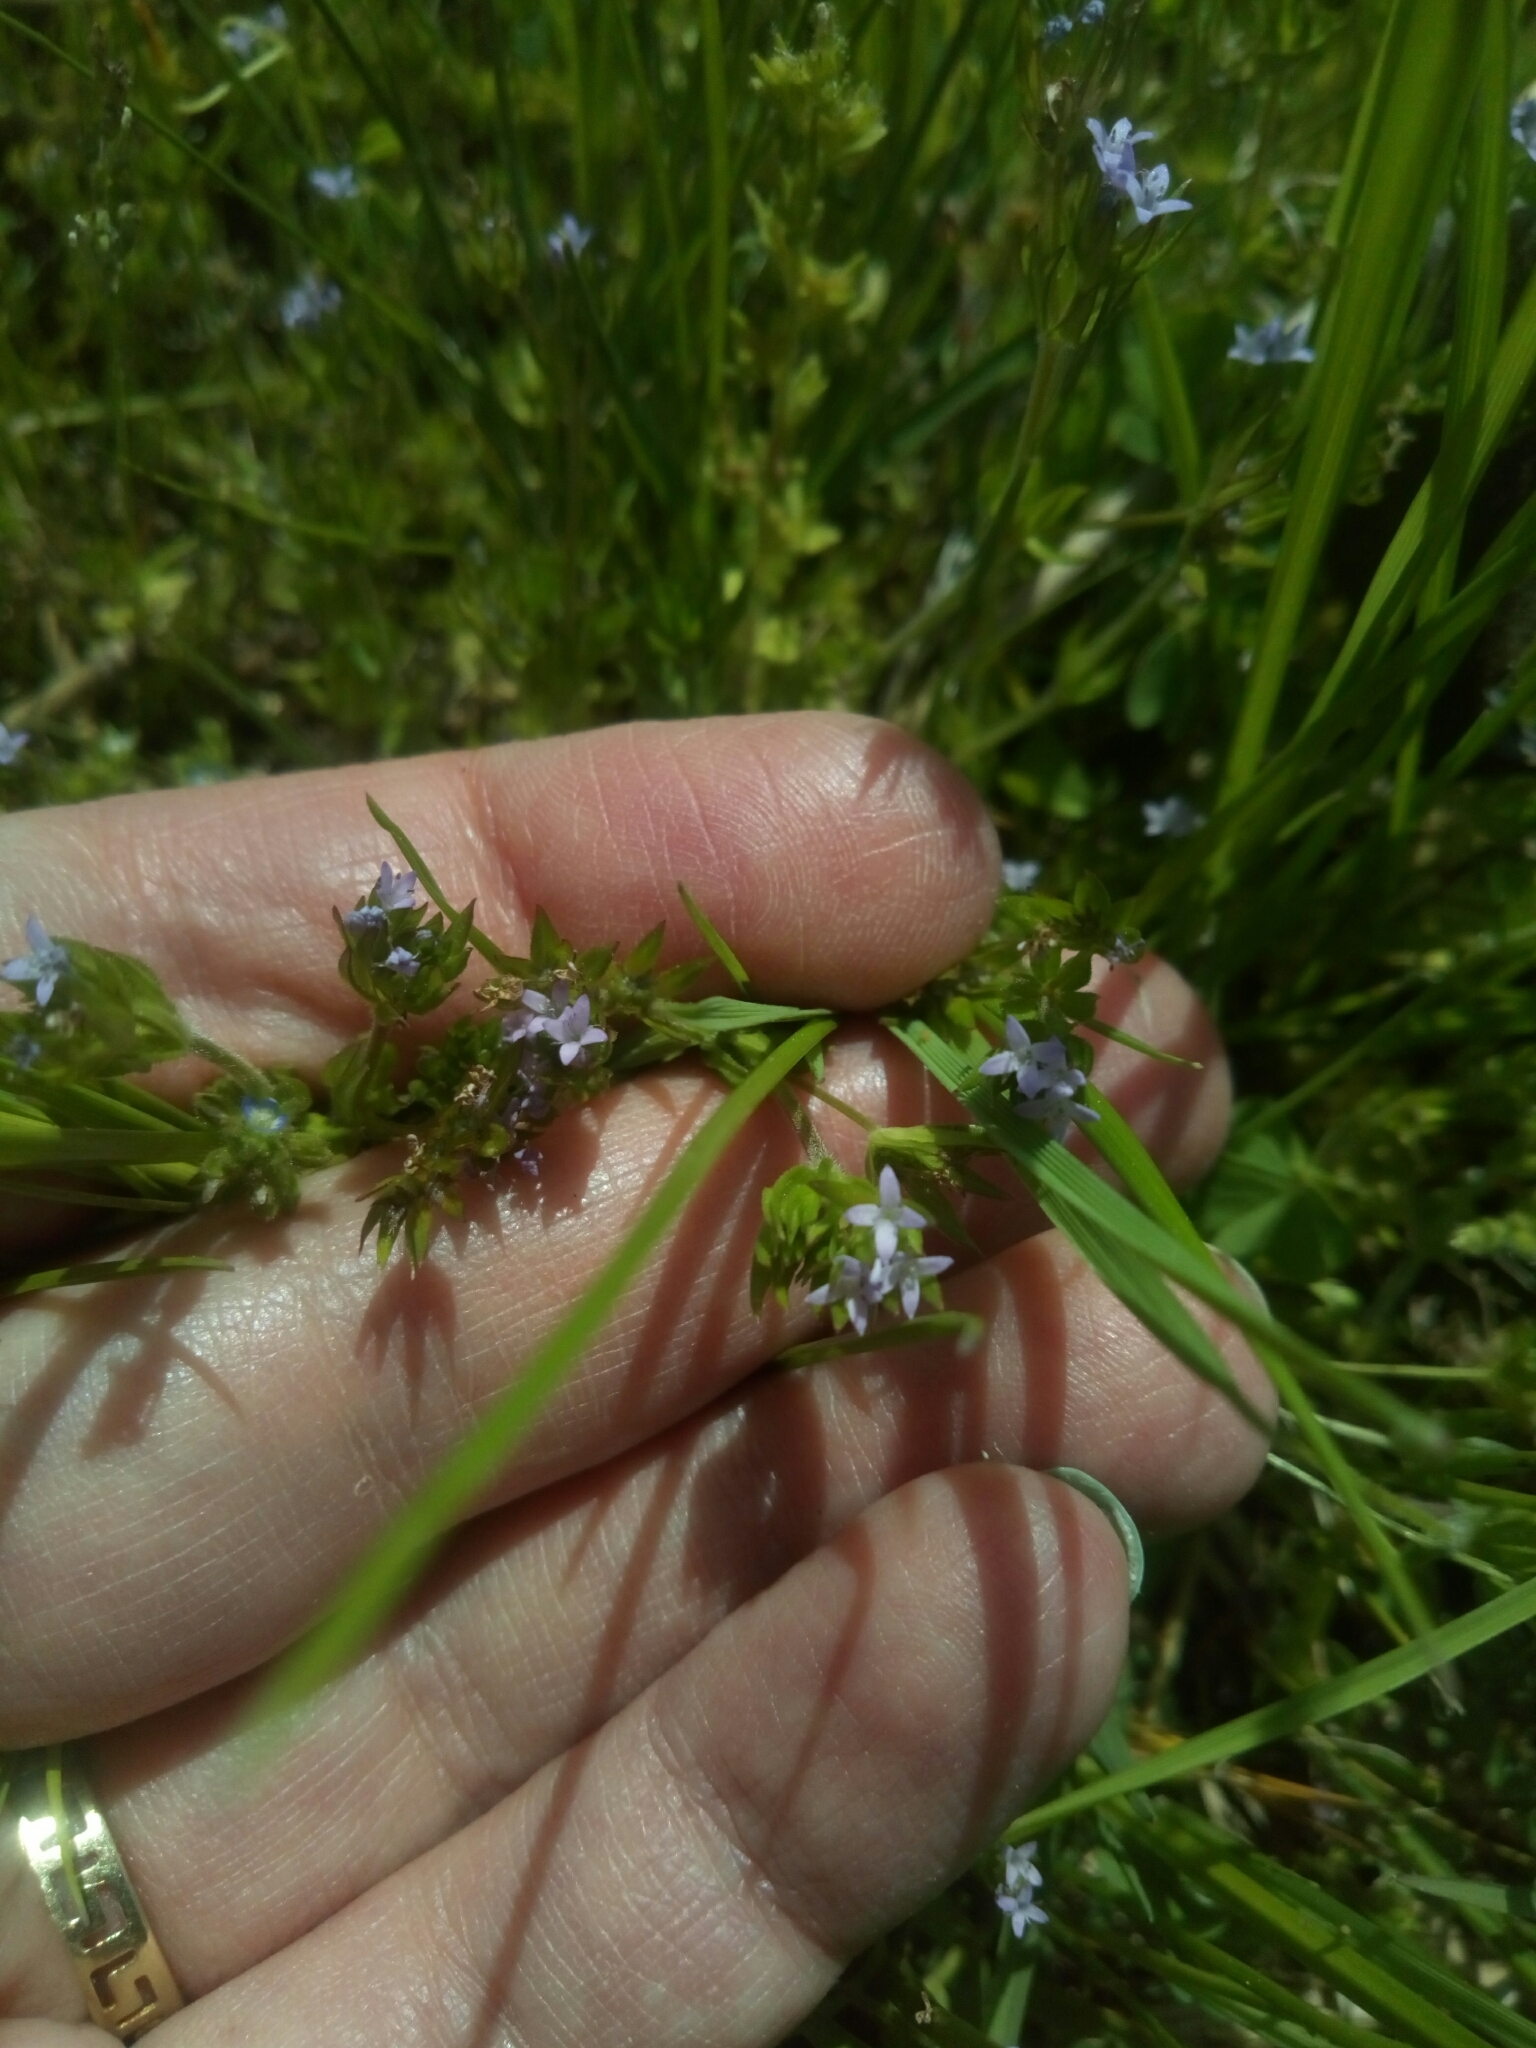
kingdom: Plantae
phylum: Tracheophyta
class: Magnoliopsida
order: Gentianales
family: Rubiaceae
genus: Sherardia
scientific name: Sherardia arvensis
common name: Field madder
